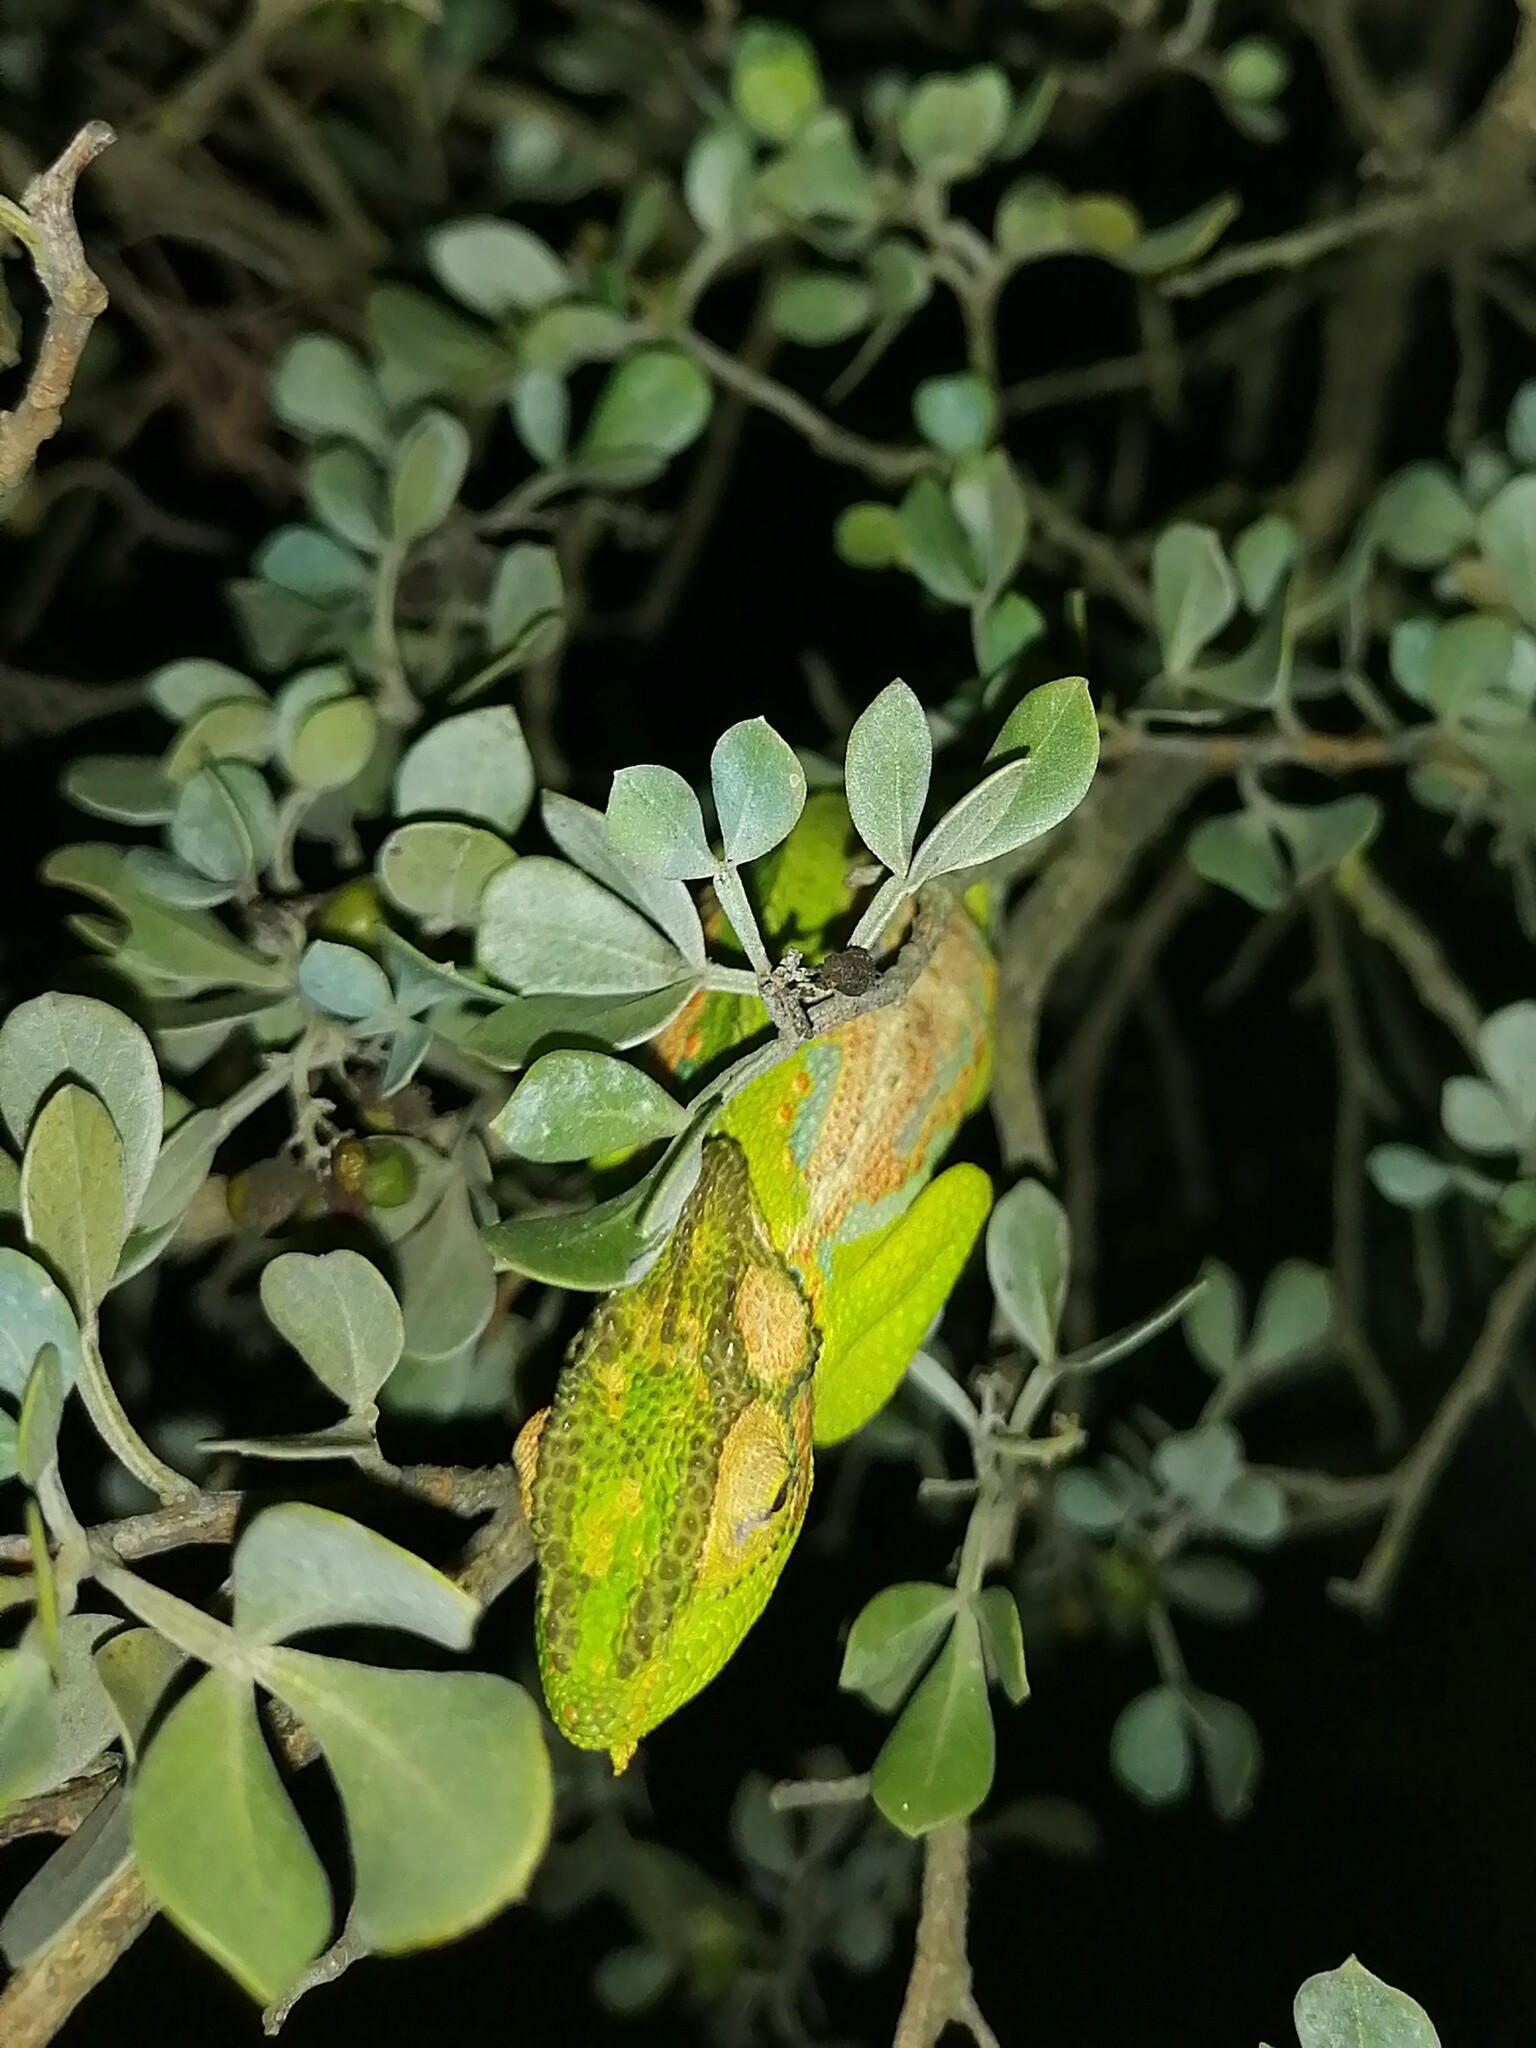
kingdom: Animalia
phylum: Chordata
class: Squamata
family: Chamaeleonidae
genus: Bradypodion
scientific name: Bradypodion pumilum
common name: Cape dwarf chameleon
